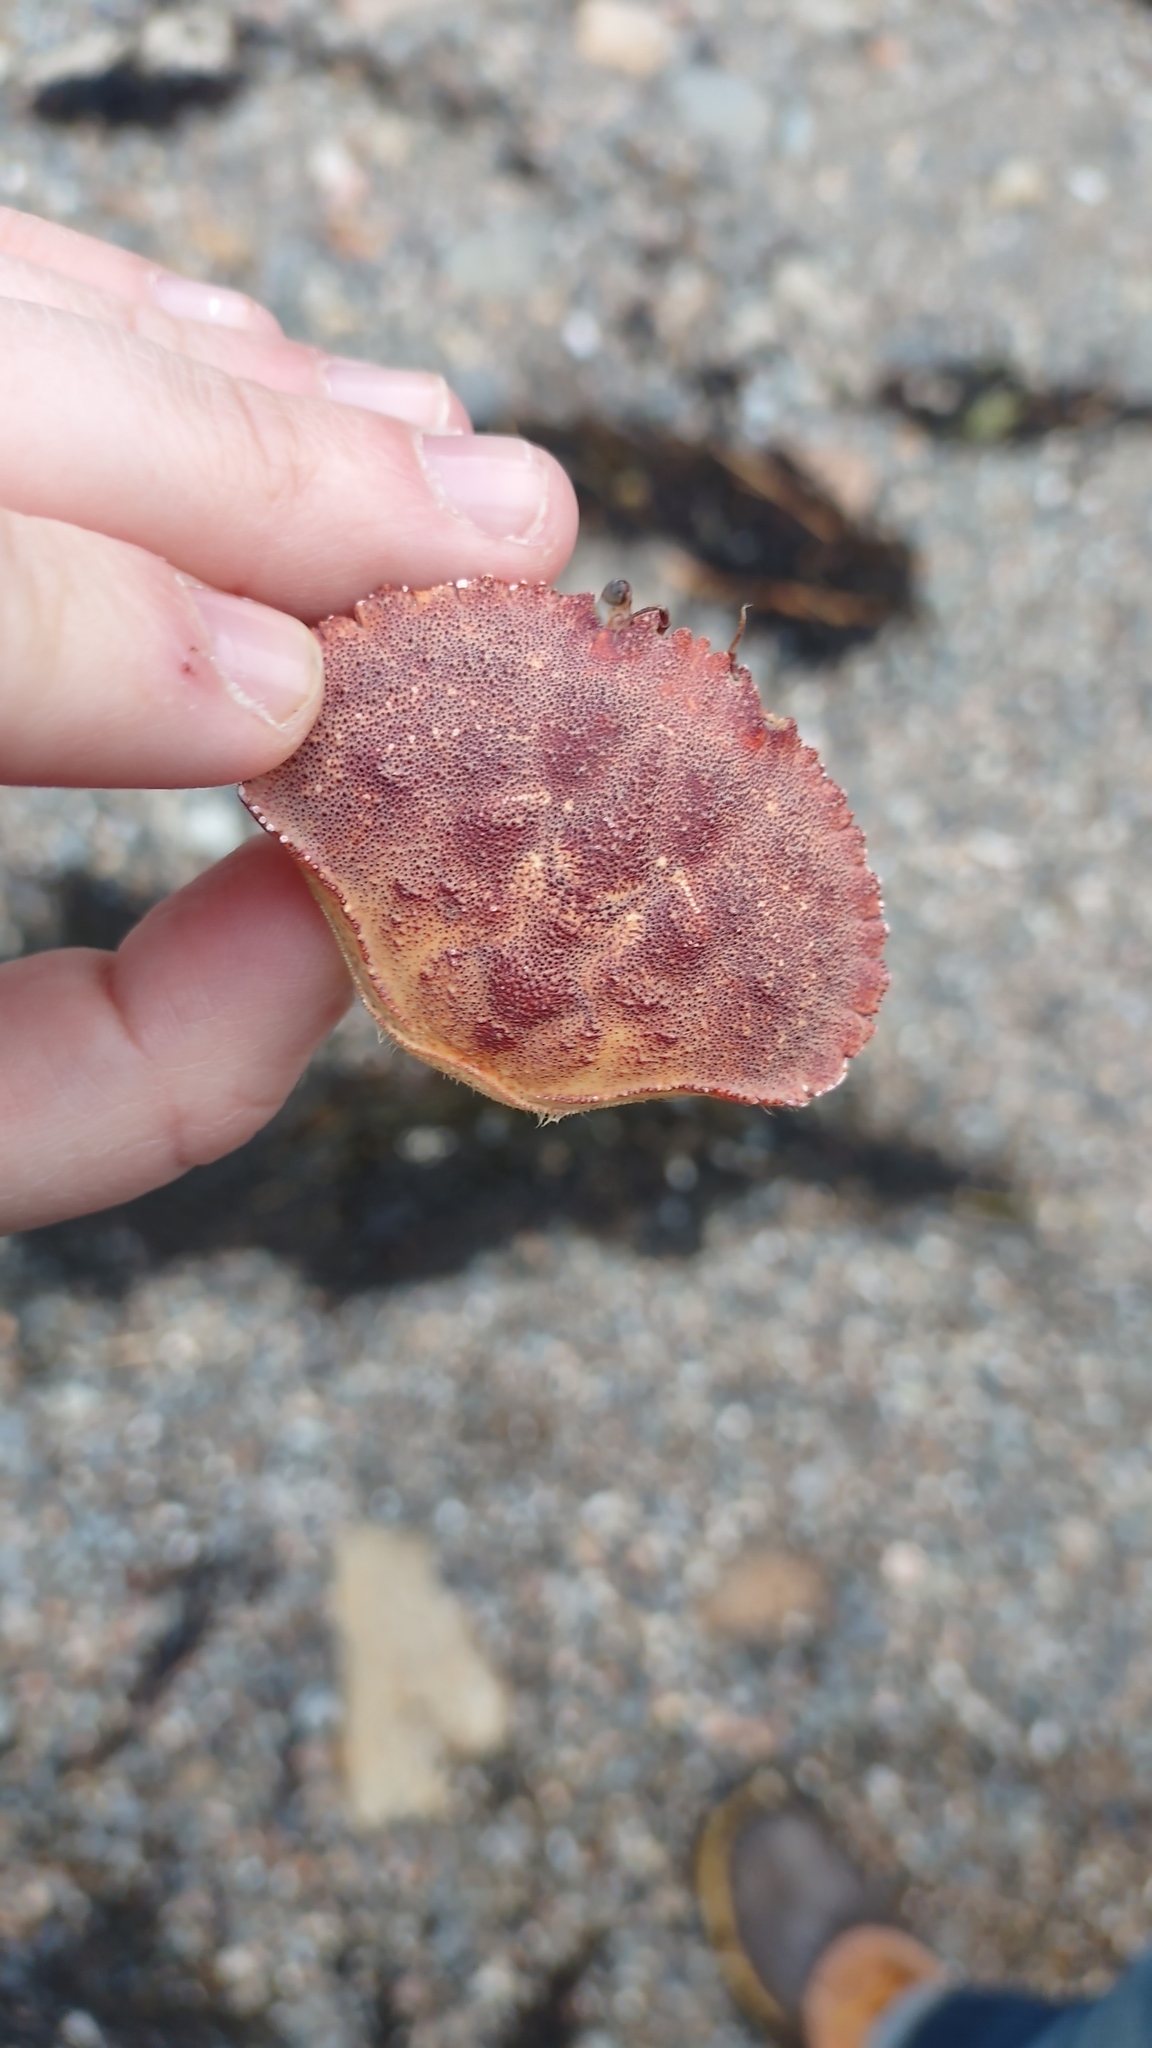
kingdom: Animalia
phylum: Arthropoda
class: Malacostraca
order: Decapoda
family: Cancridae
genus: Cancer
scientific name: Cancer borealis
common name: Jonah crab
